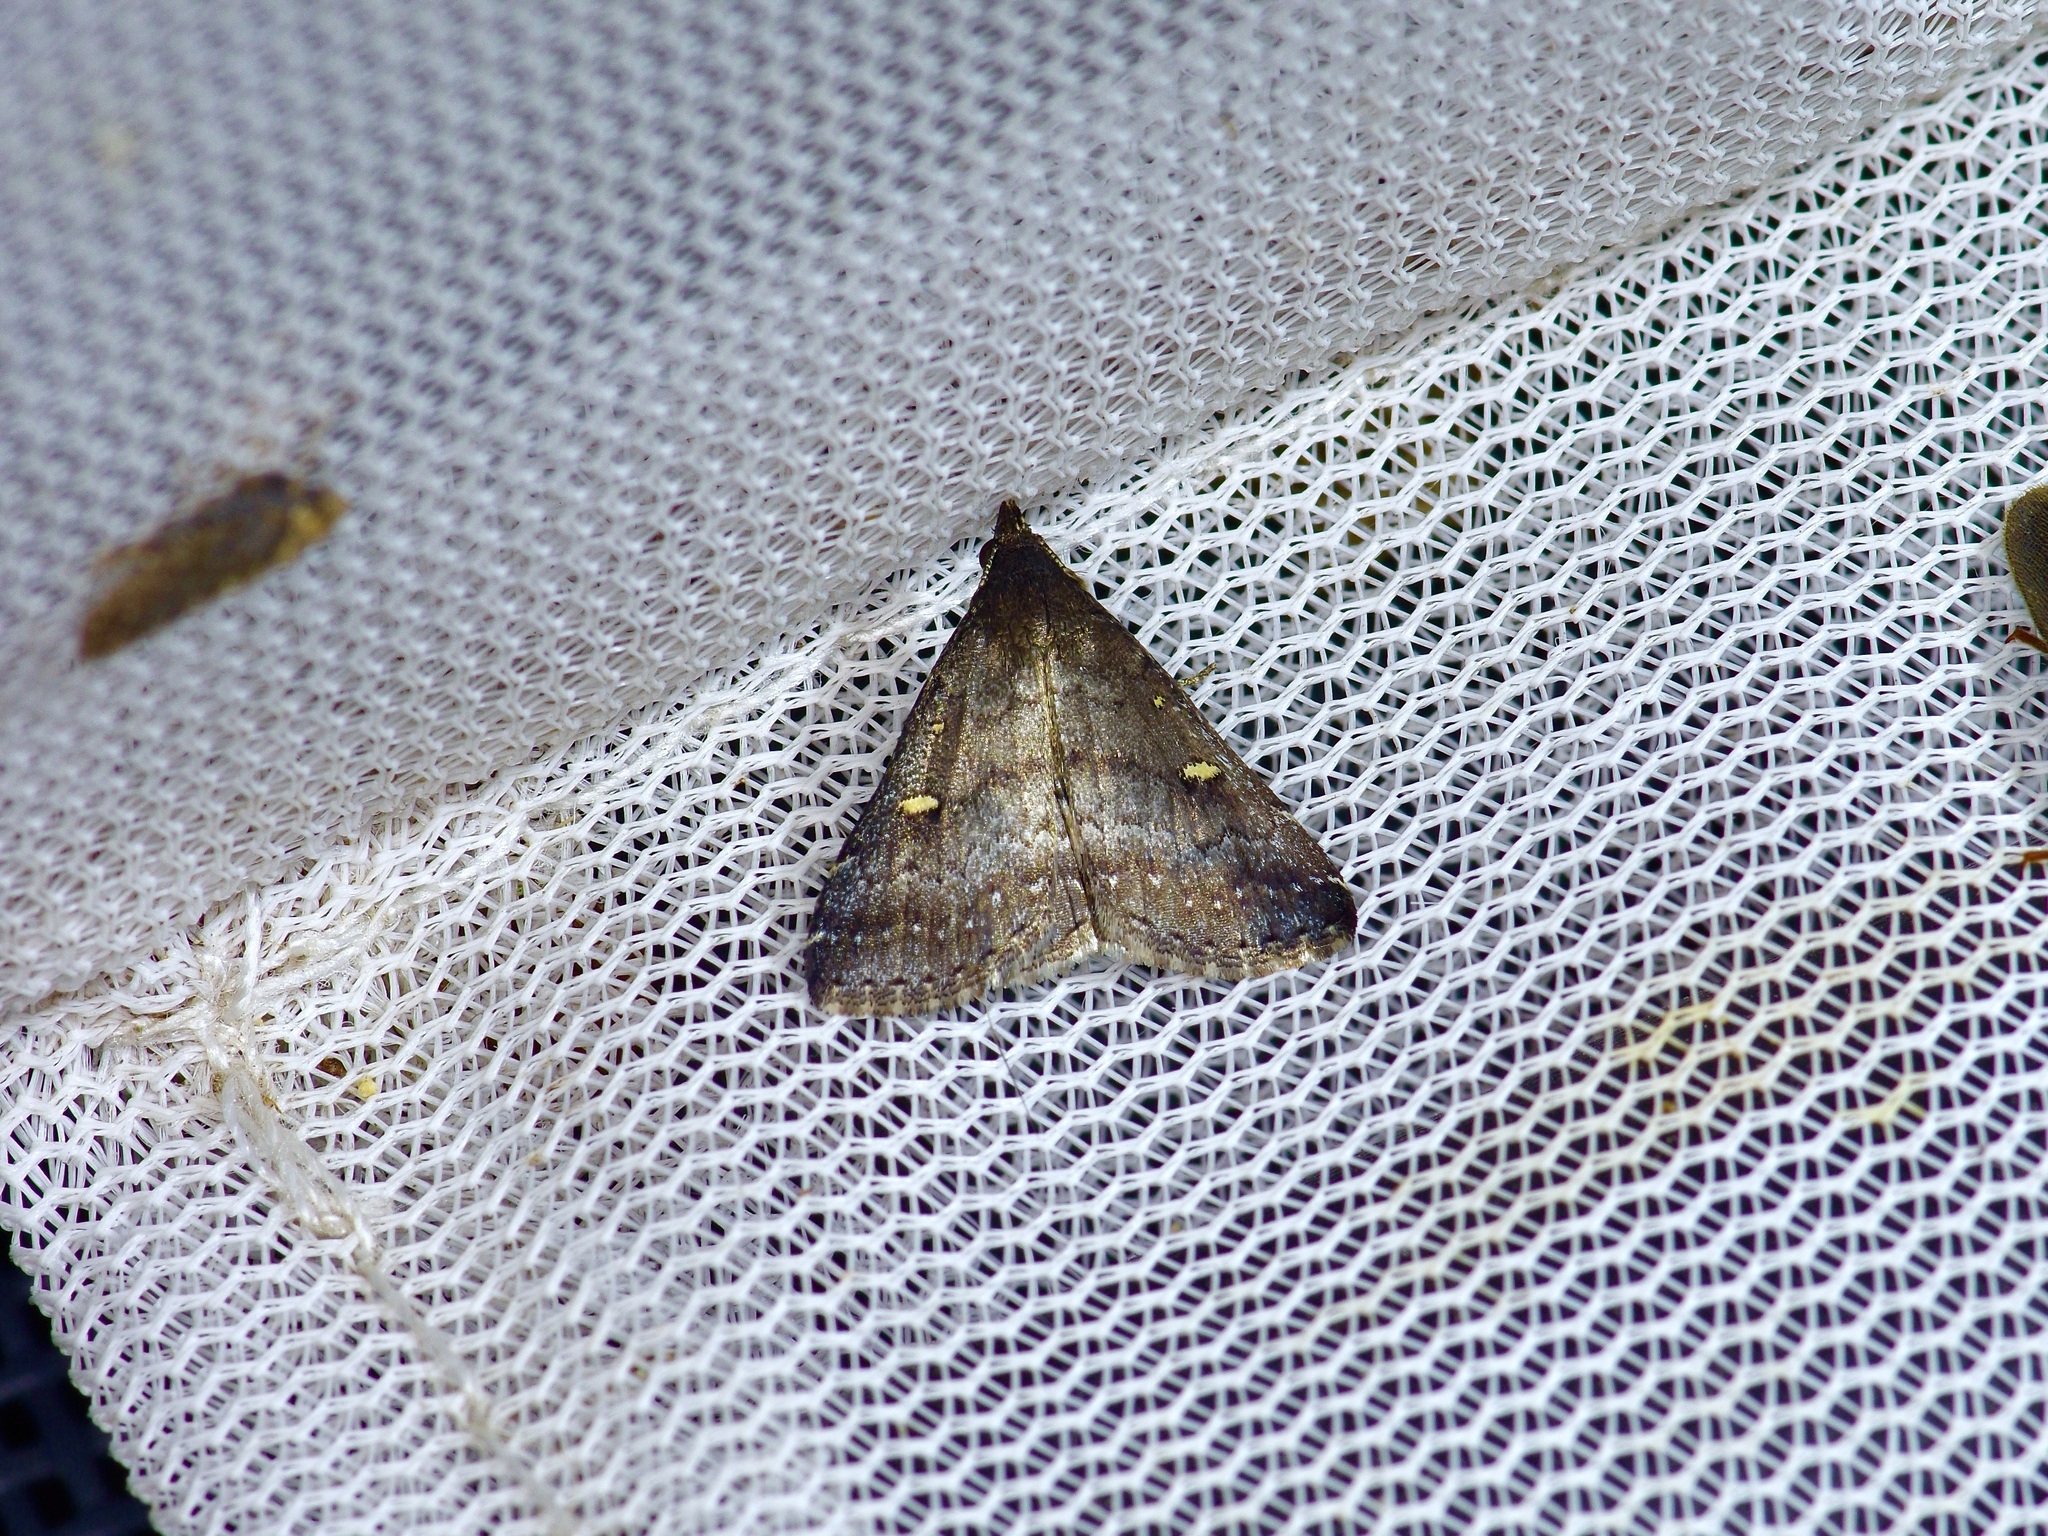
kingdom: Animalia
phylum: Arthropoda
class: Insecta
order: Lepidoptera
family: Erebidae
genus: Tetanolita
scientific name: Tetanolita mynesalis
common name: Smoky tetanolita moth
